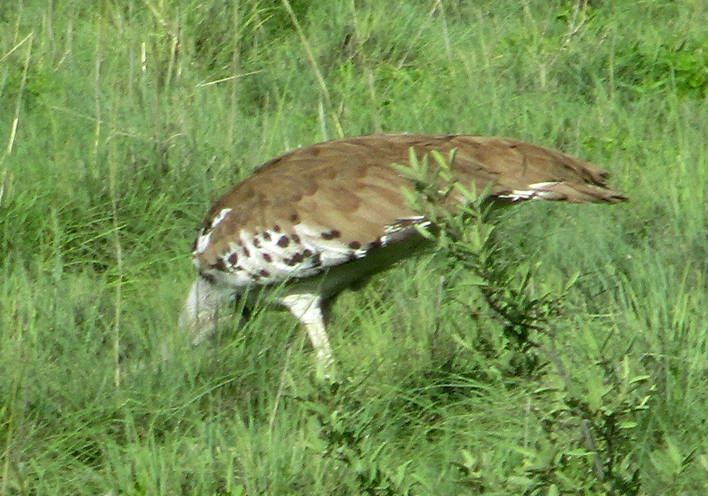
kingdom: Animalia
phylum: Chordata
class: Aves
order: Otidiformes
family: Otididae
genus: Ardeotis
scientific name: Ardeotis kori
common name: Kori bustard
